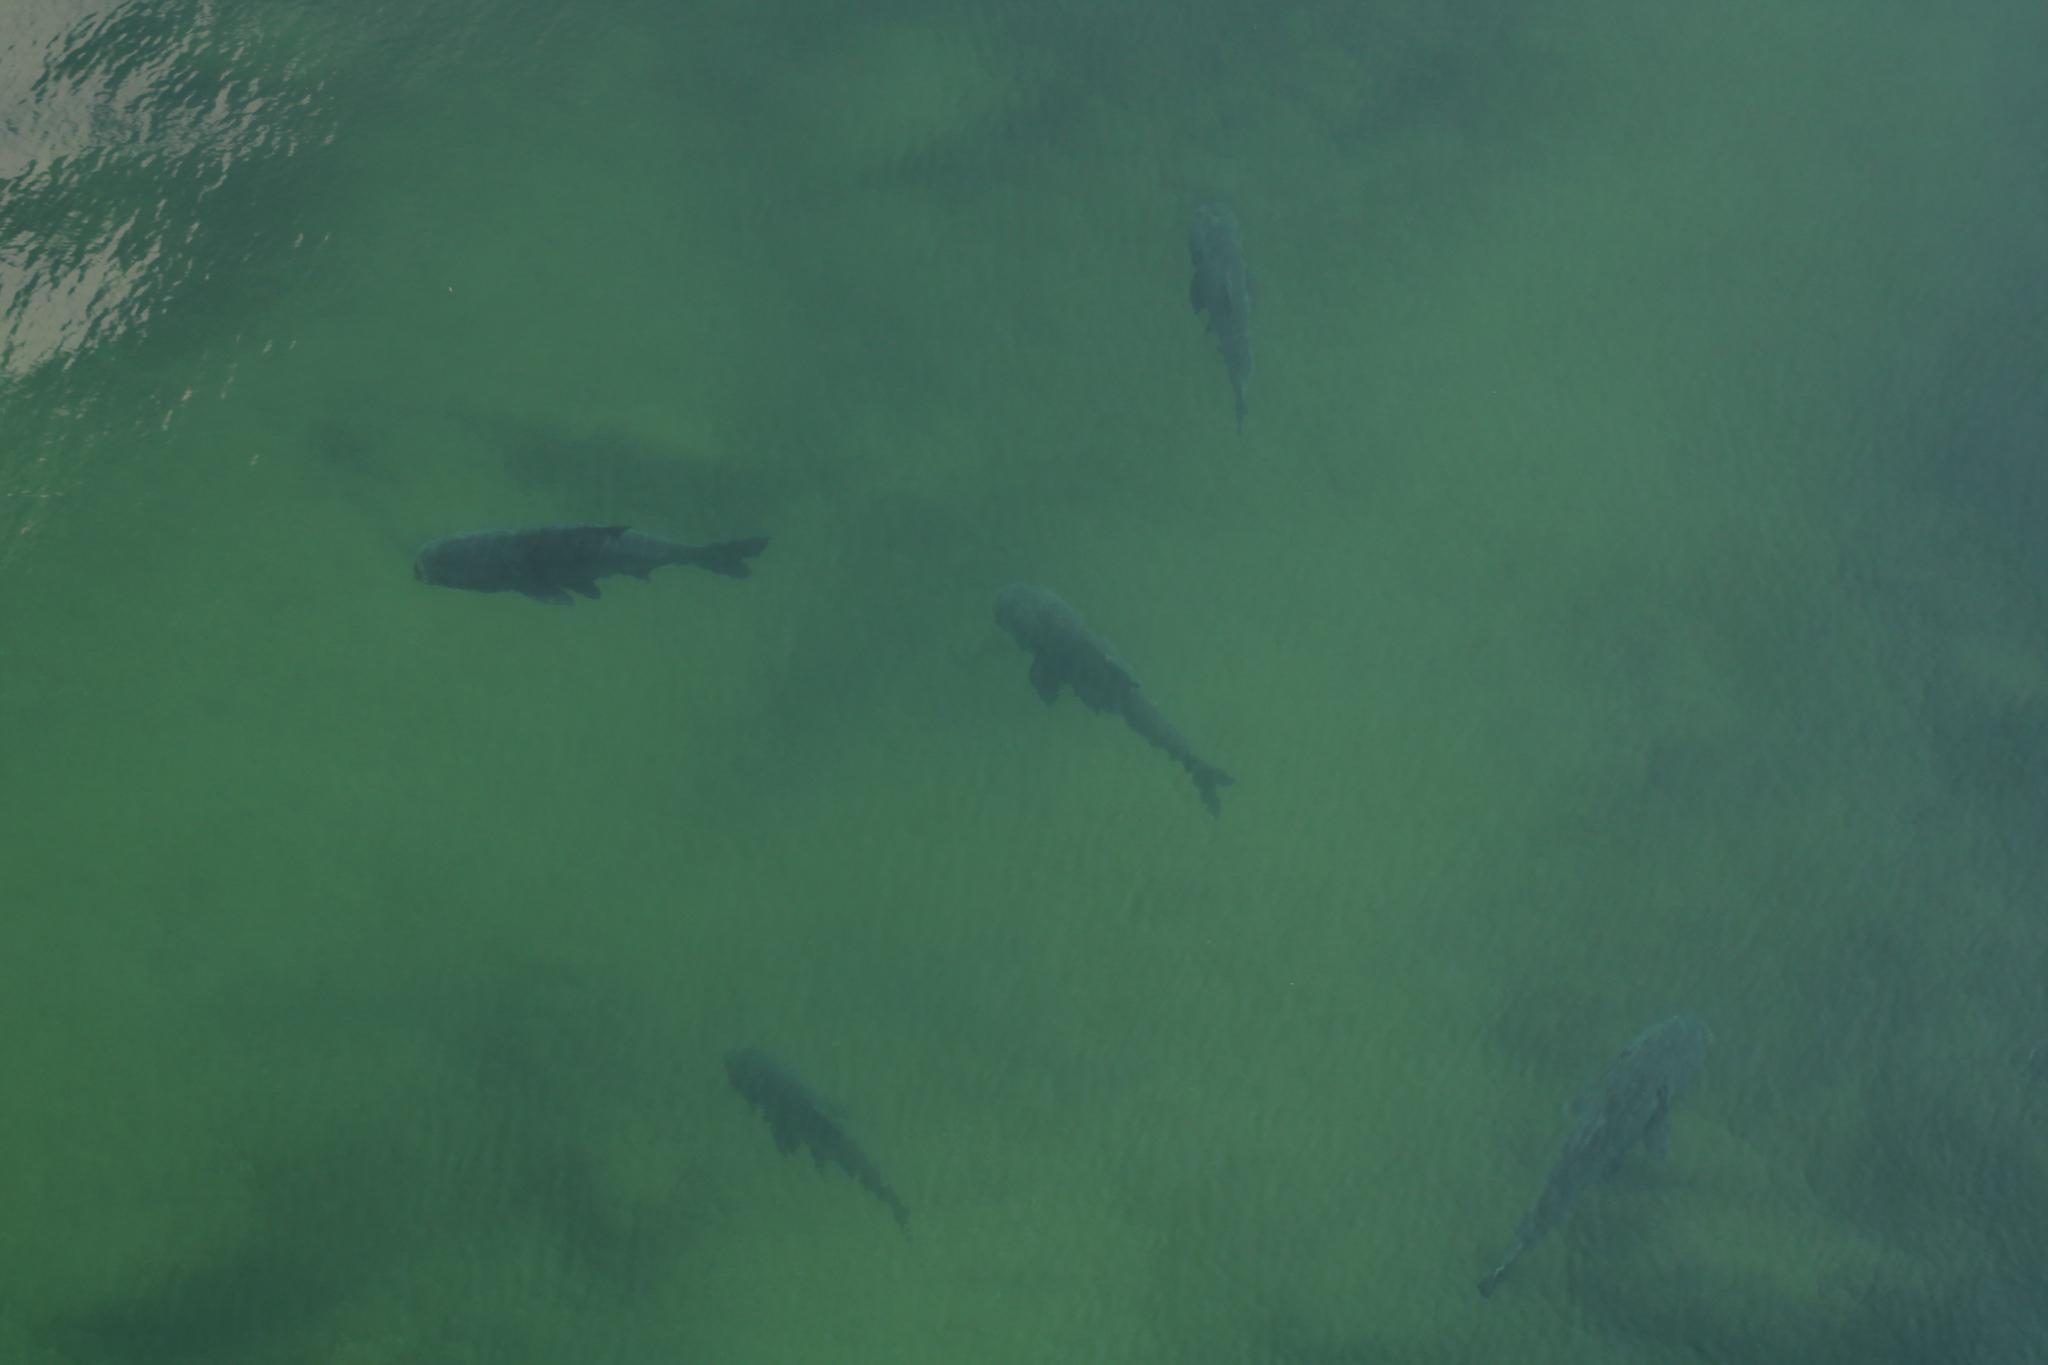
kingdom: Animalia
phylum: Chordata
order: Cypriniformes
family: Cyprinidae
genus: Hypophthalmichthys
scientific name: Hypophthalmichthys nobilis
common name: Bighead carp
